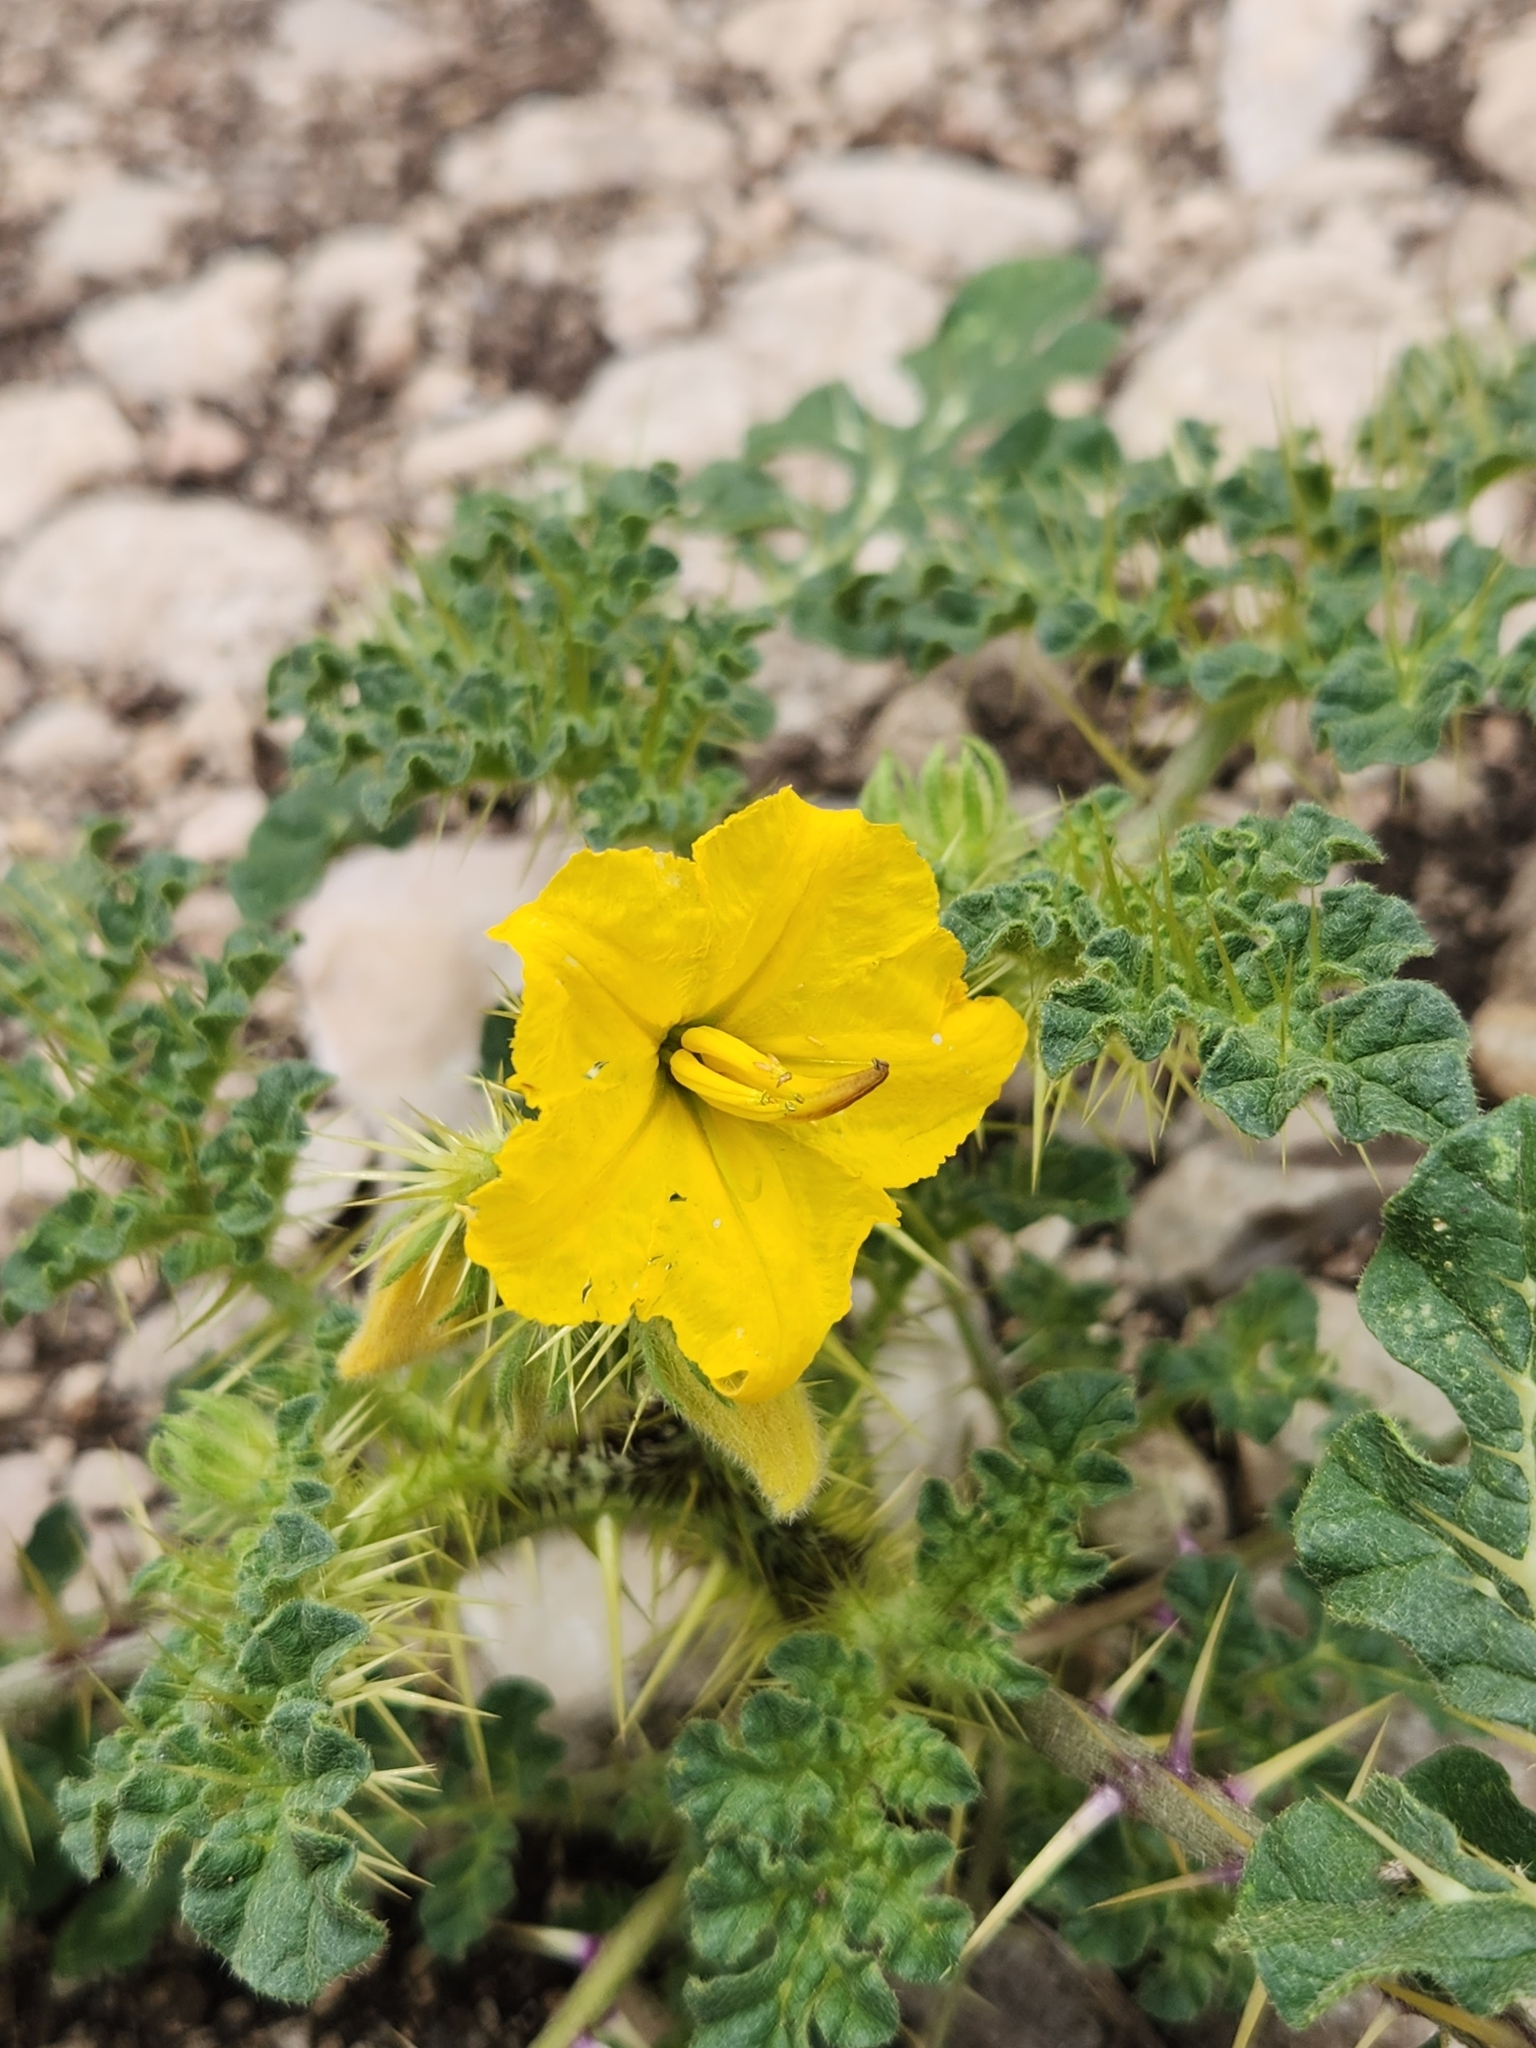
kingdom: Plantae
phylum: Tracheophyta
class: Magnoliopsida
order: Solanales
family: Solanaceae
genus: Solanum
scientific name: Solanum angustifolium
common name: Buffalobur nightshade
